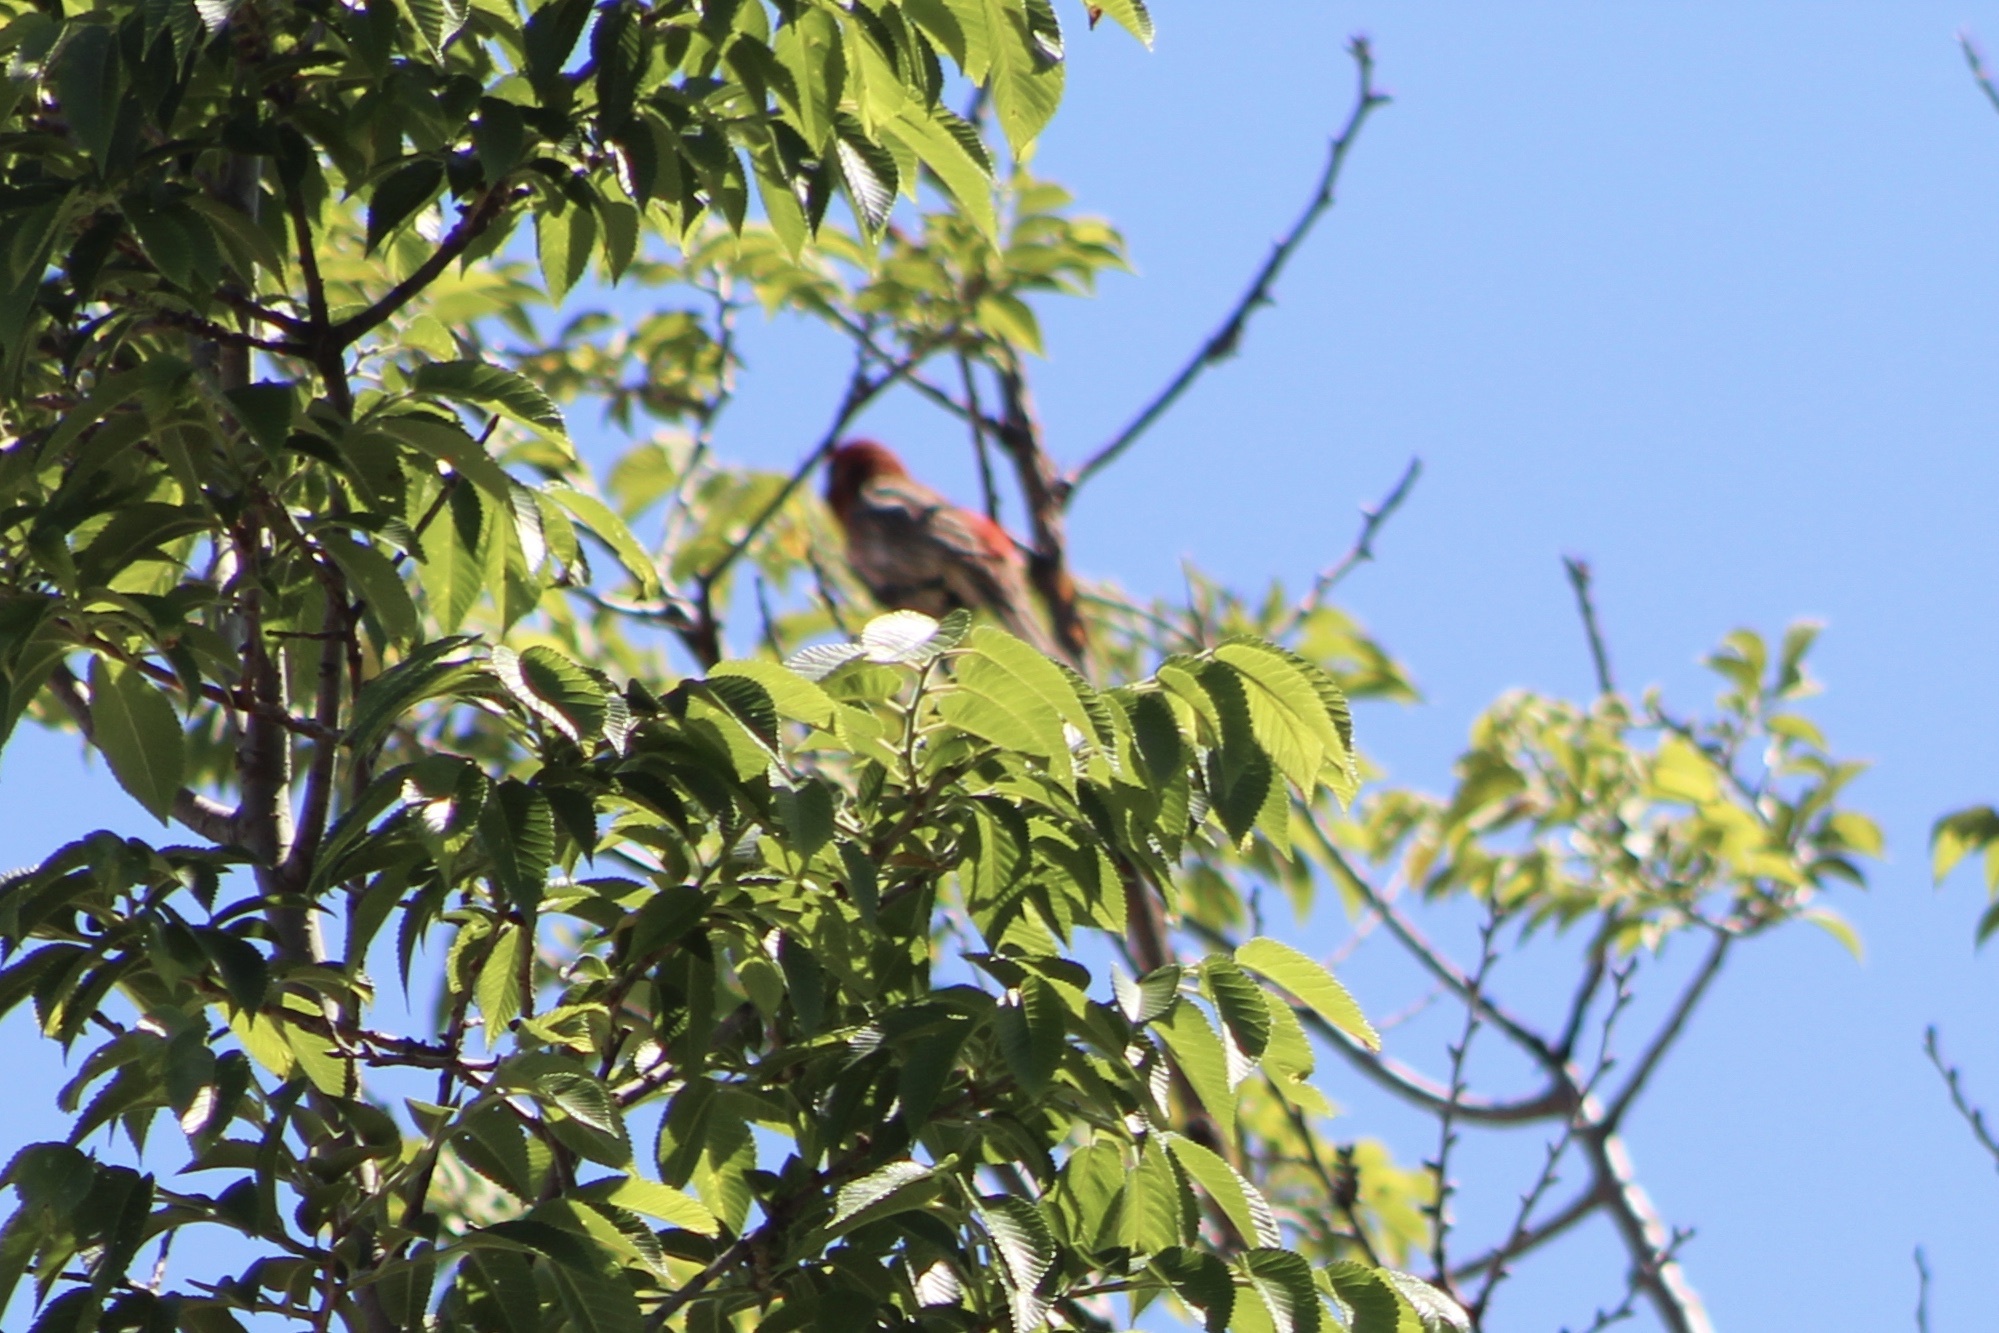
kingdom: Animalia
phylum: Chordata
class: Aves
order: Passeriformes
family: Fringillidae
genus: Haemorhous
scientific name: Haemorhous mexicanus
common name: House finch
